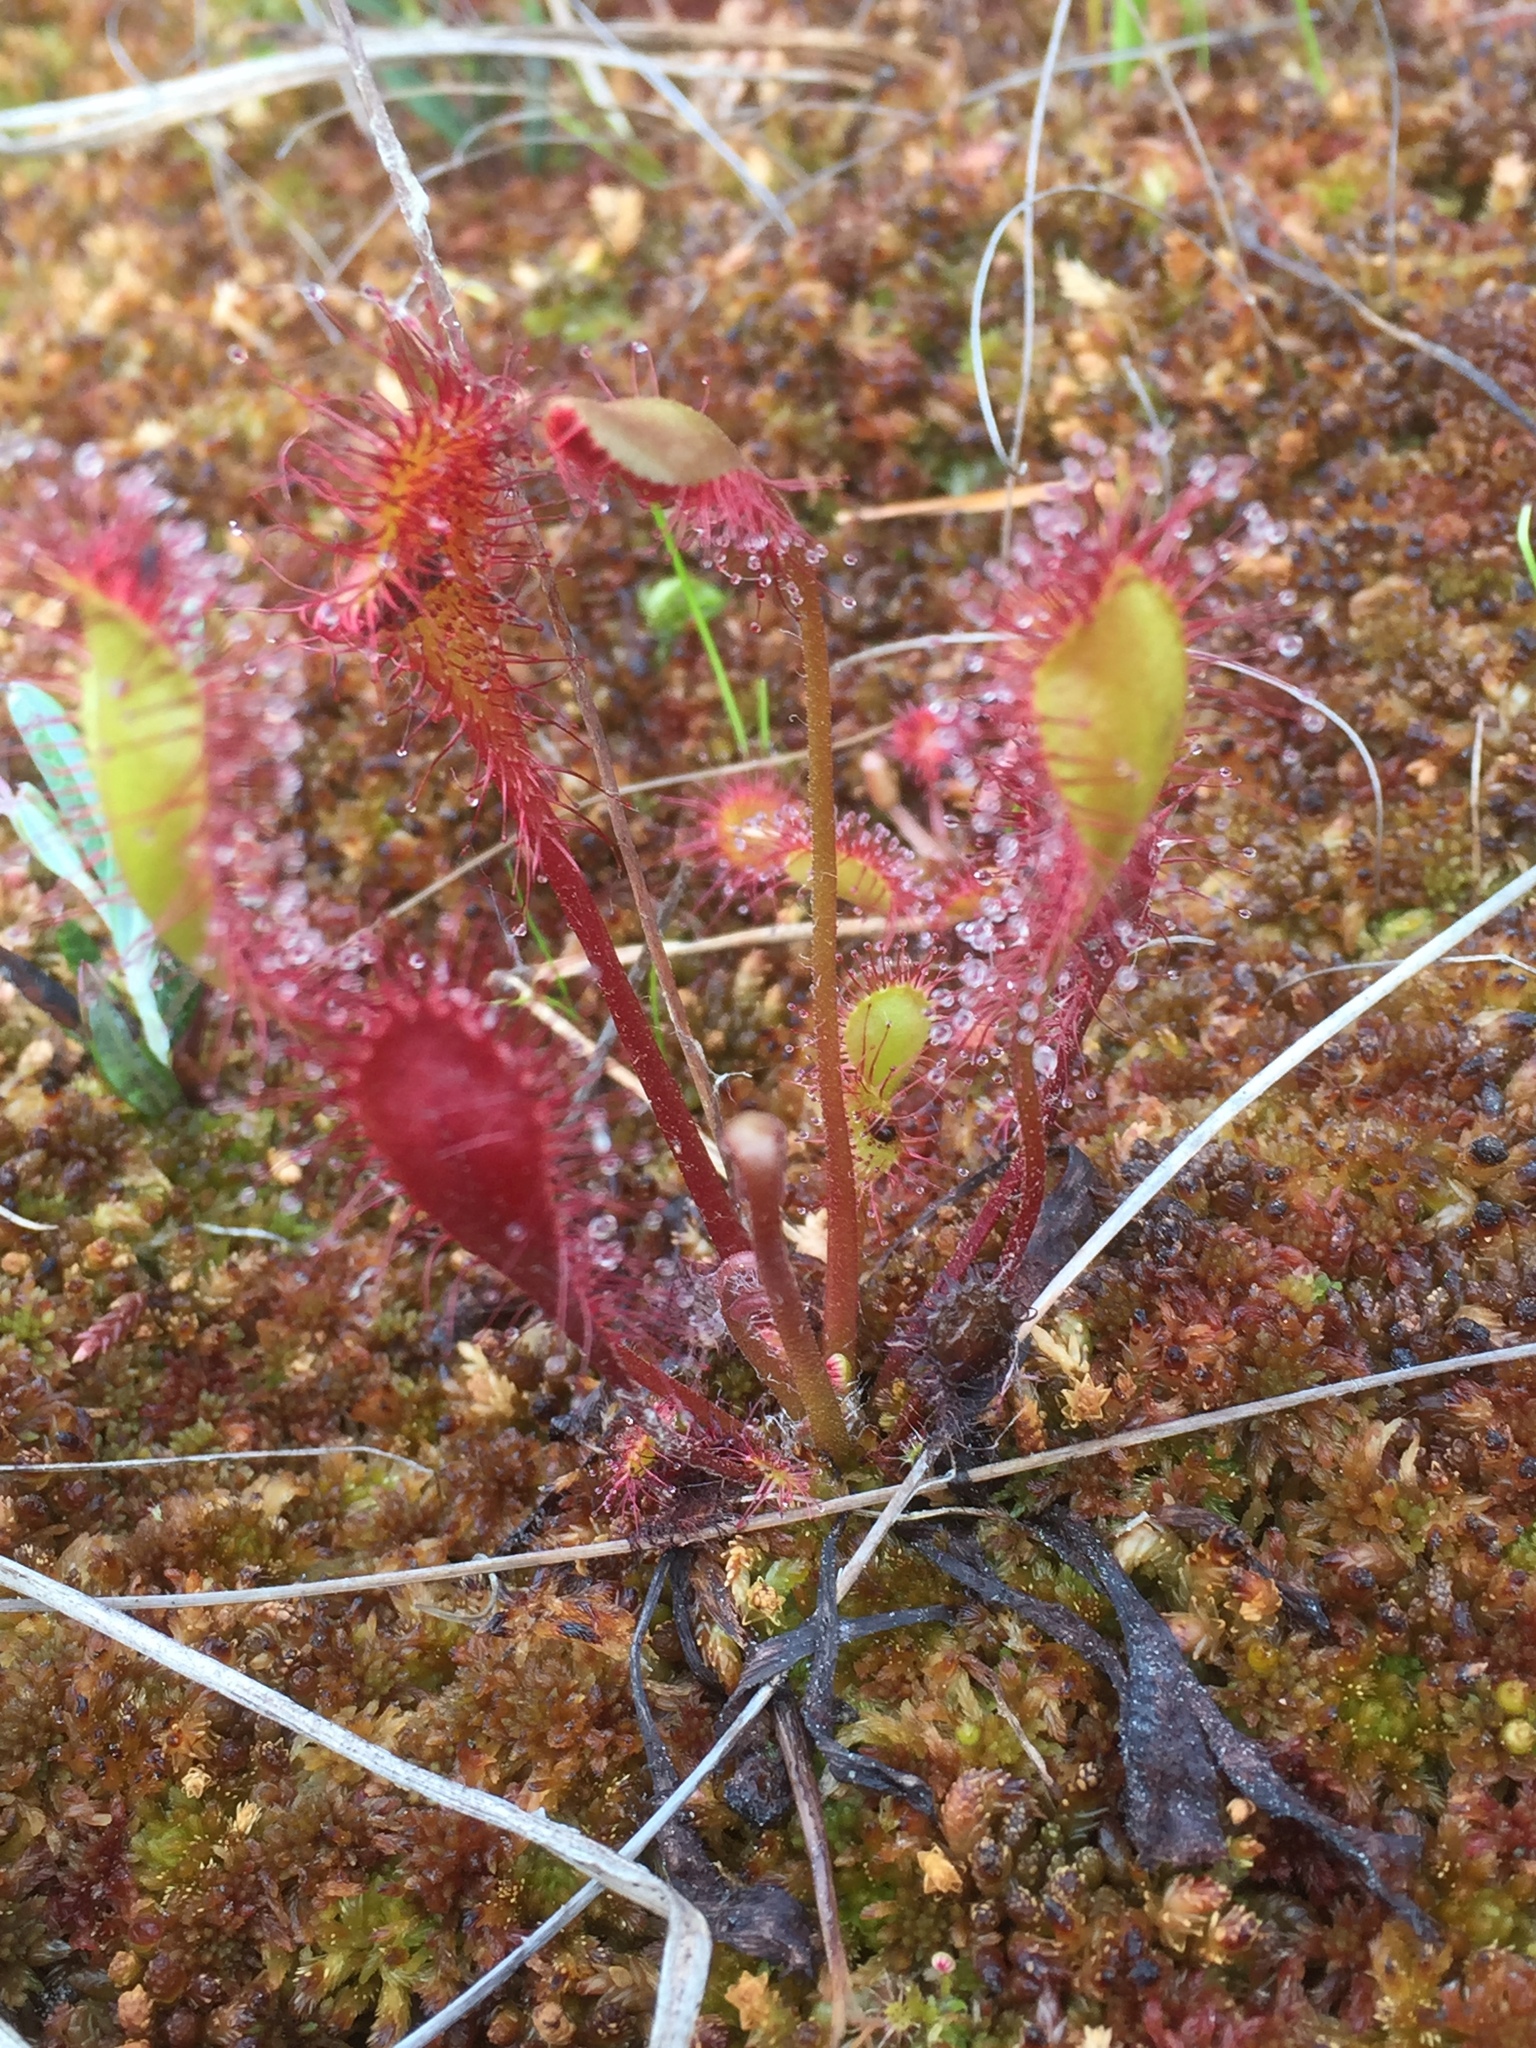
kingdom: Plantae
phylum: Tracheophyta
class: Magnoliopsida
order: Caryophyllales
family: Droseraceae
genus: Drosera
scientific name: Drosera obovata
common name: Ivan's paddle
